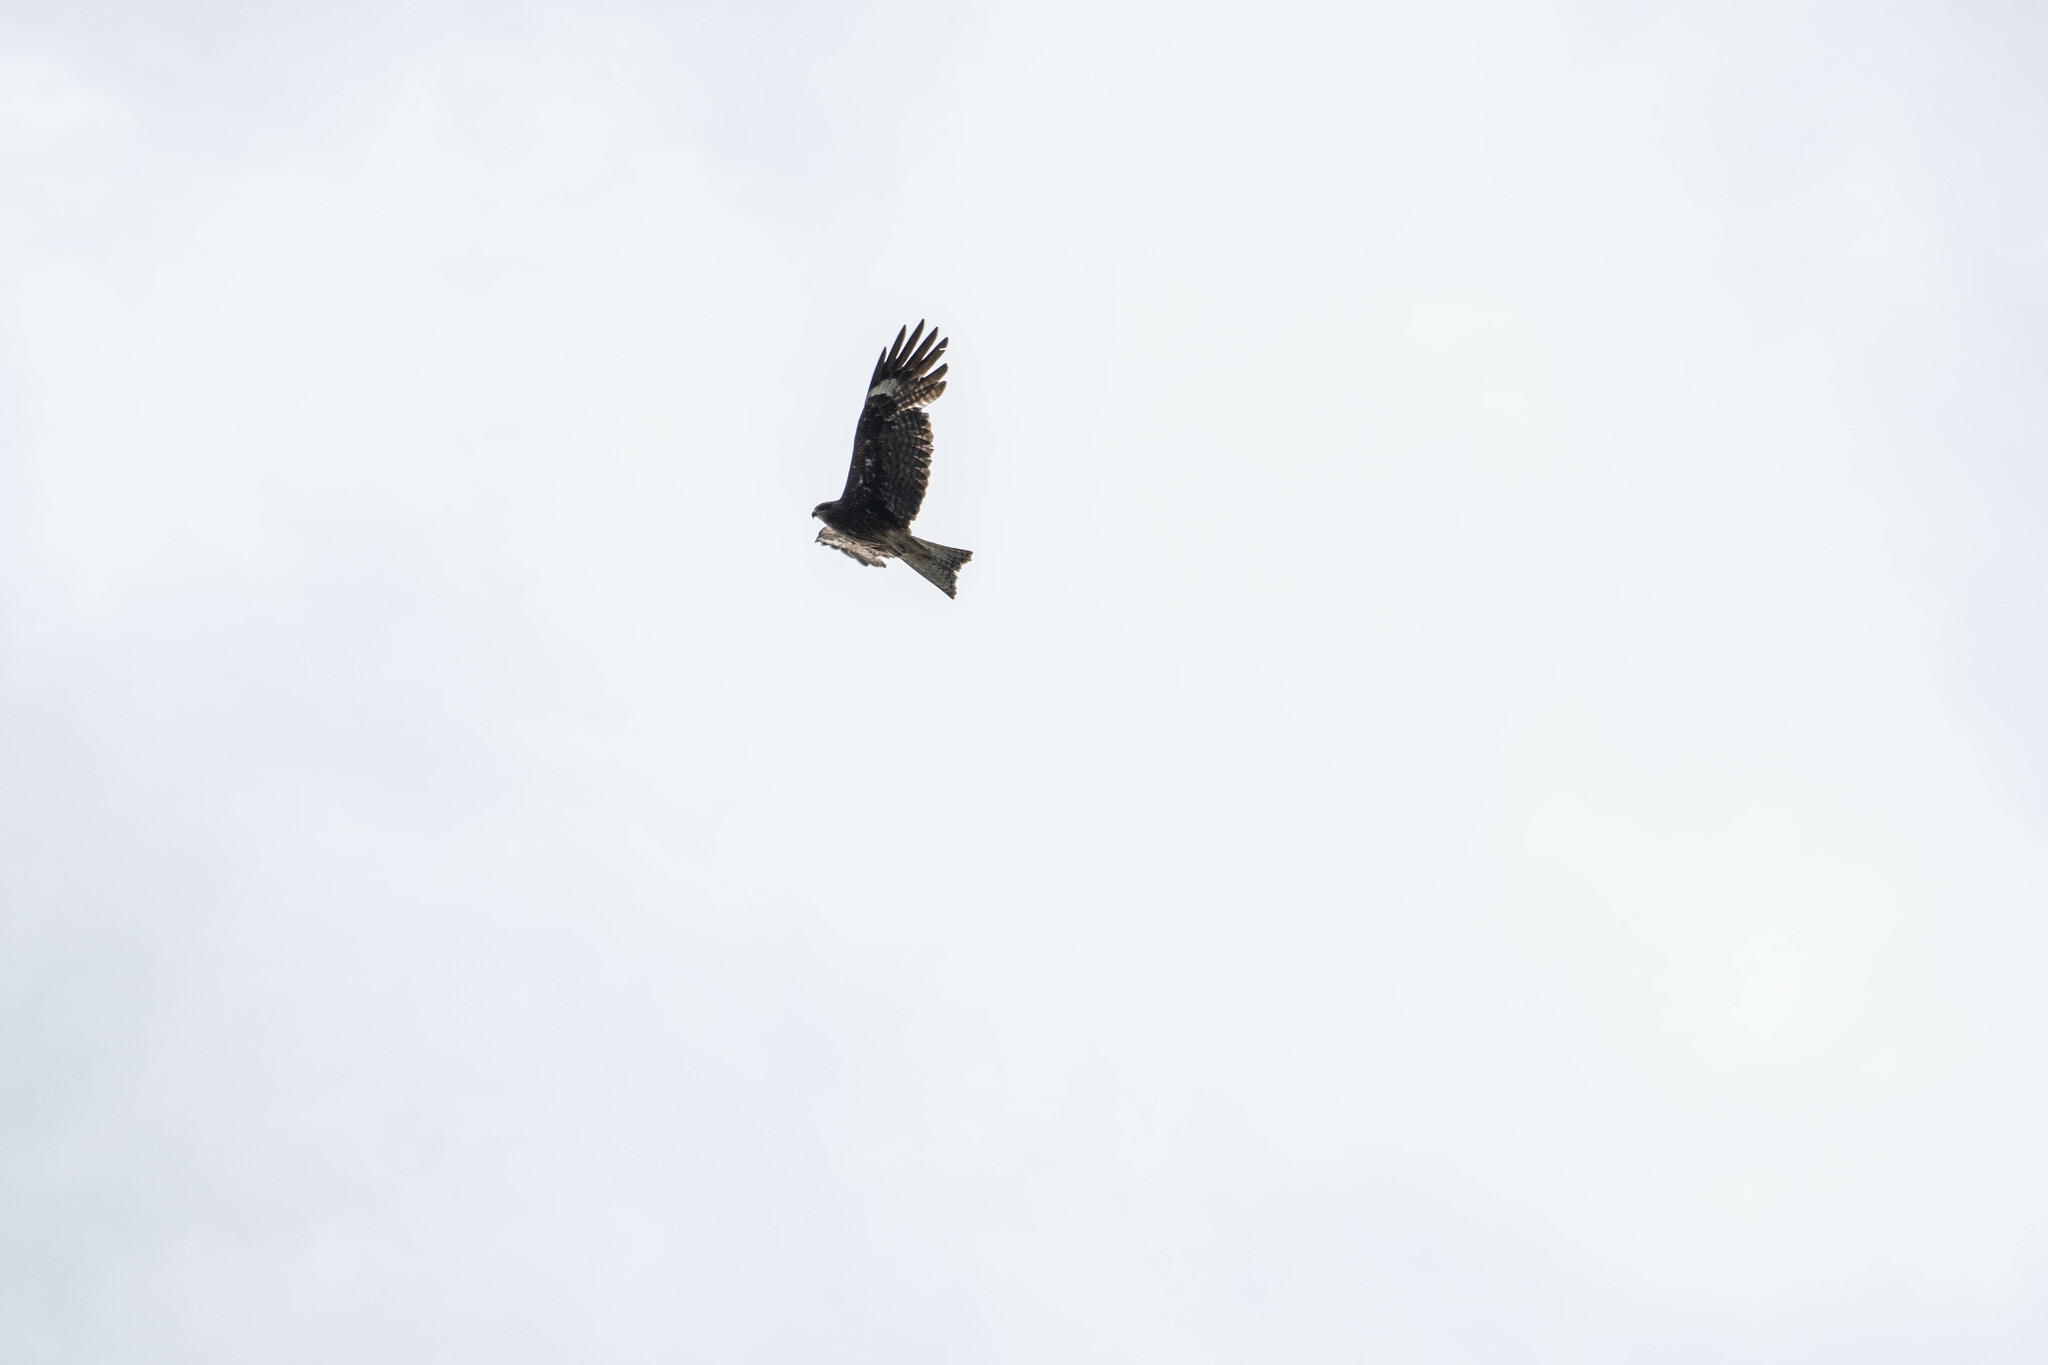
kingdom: Animalia
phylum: Chordata
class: Aves
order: Accipitriformes
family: Accipitridae
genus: Milvus
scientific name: Milvus migrans
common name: Black kite
